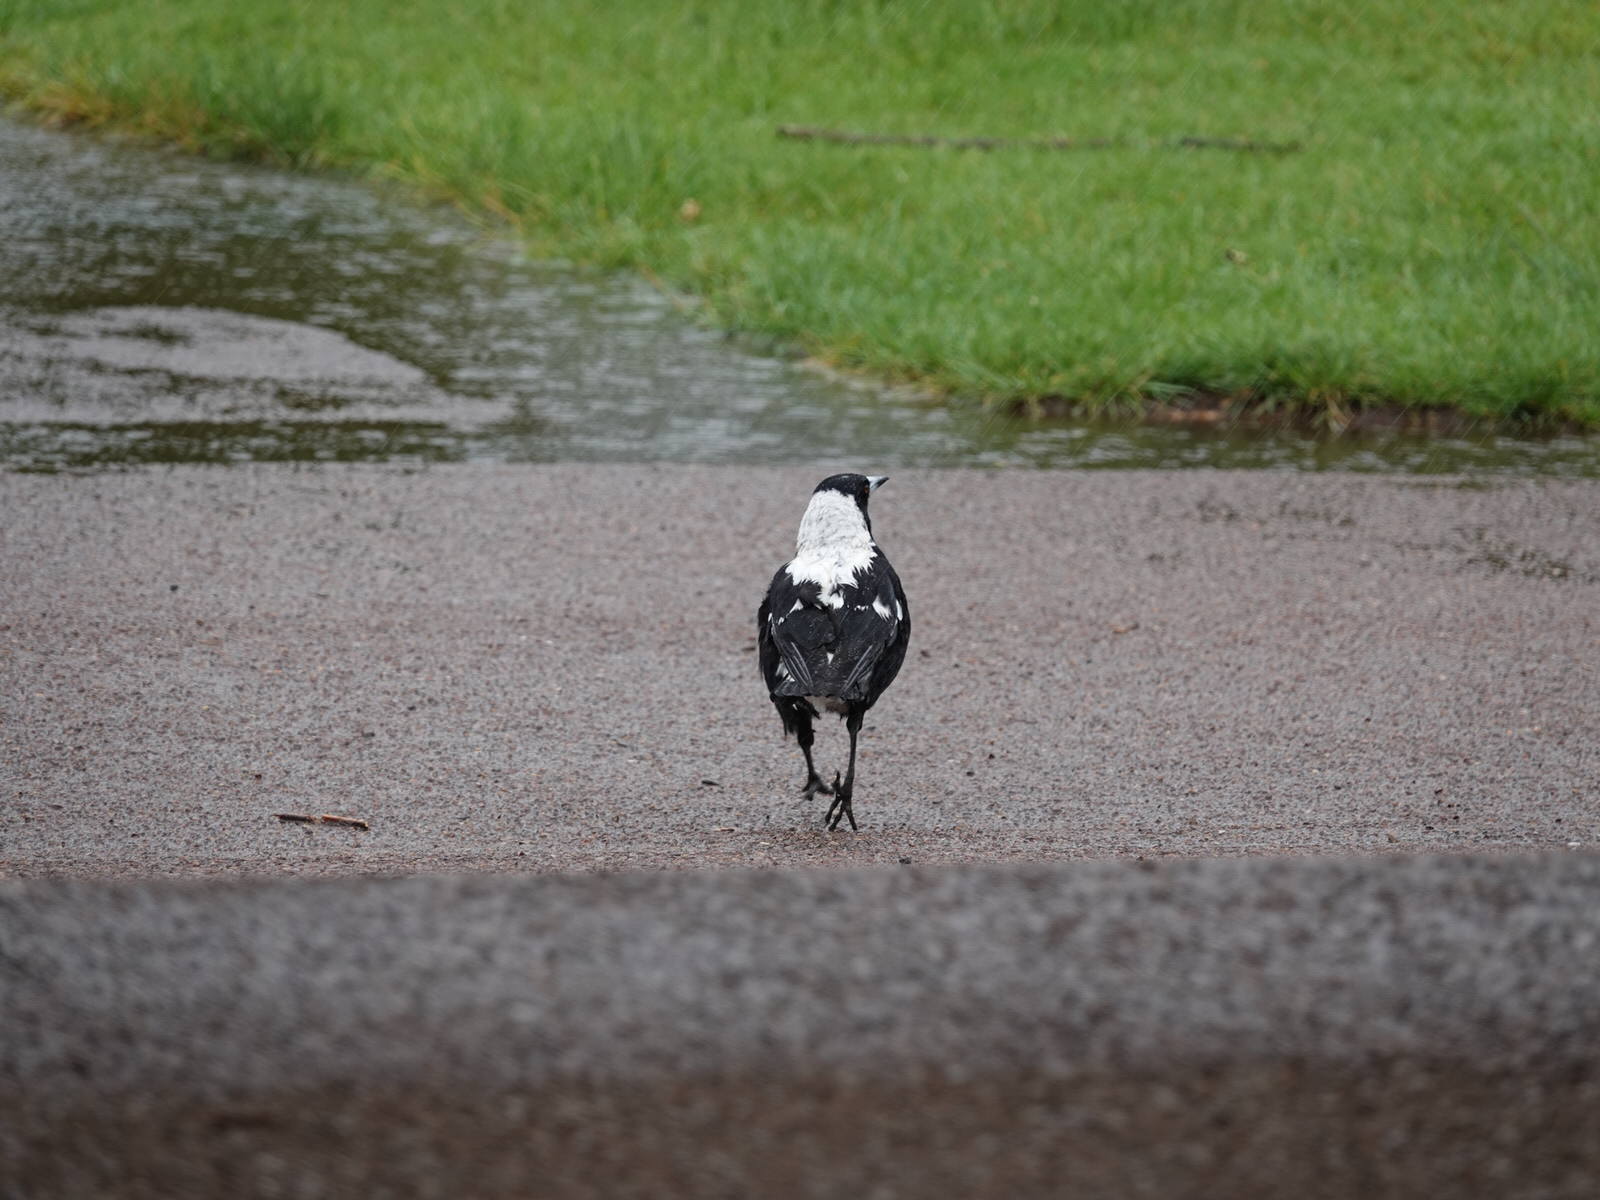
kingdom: Animalia
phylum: Chordata
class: Aves
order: Passeriformes
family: Cracticidae
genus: Gymnorhina
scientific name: Gymnorhina tibicen
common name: Australian magpie
